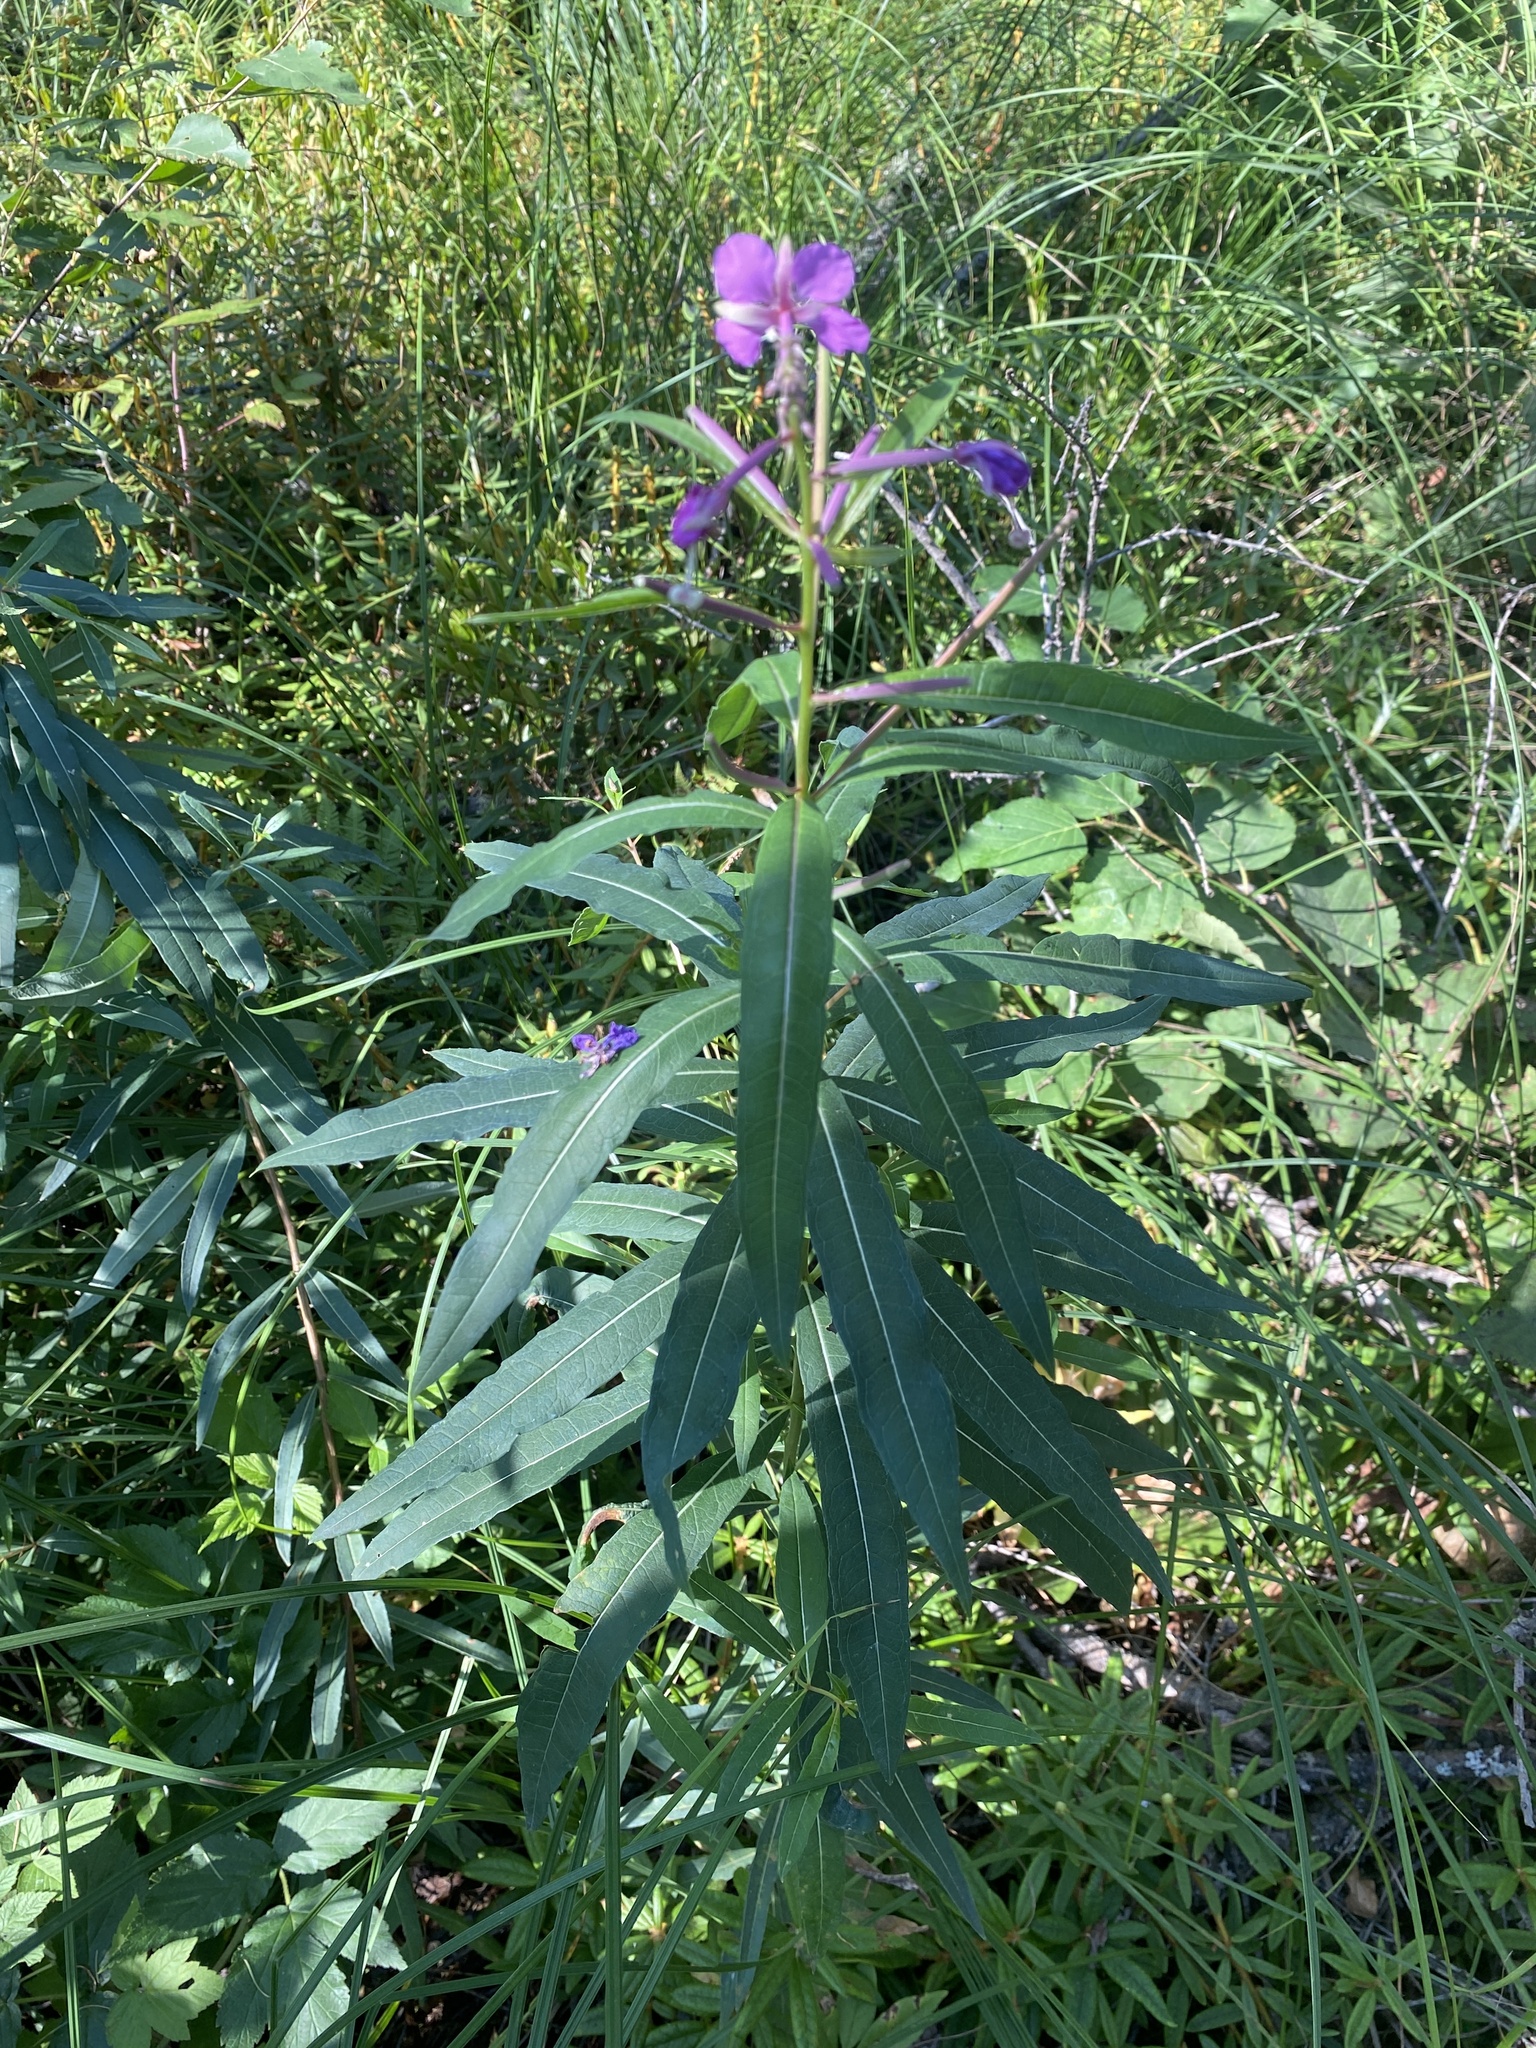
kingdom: Plantae
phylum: Tracheophyta
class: Magnoliopsida
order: Myrtales
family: Onagraceae
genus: Chamaenerion
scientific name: Chamaenerion angustifolium
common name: Fireweed
